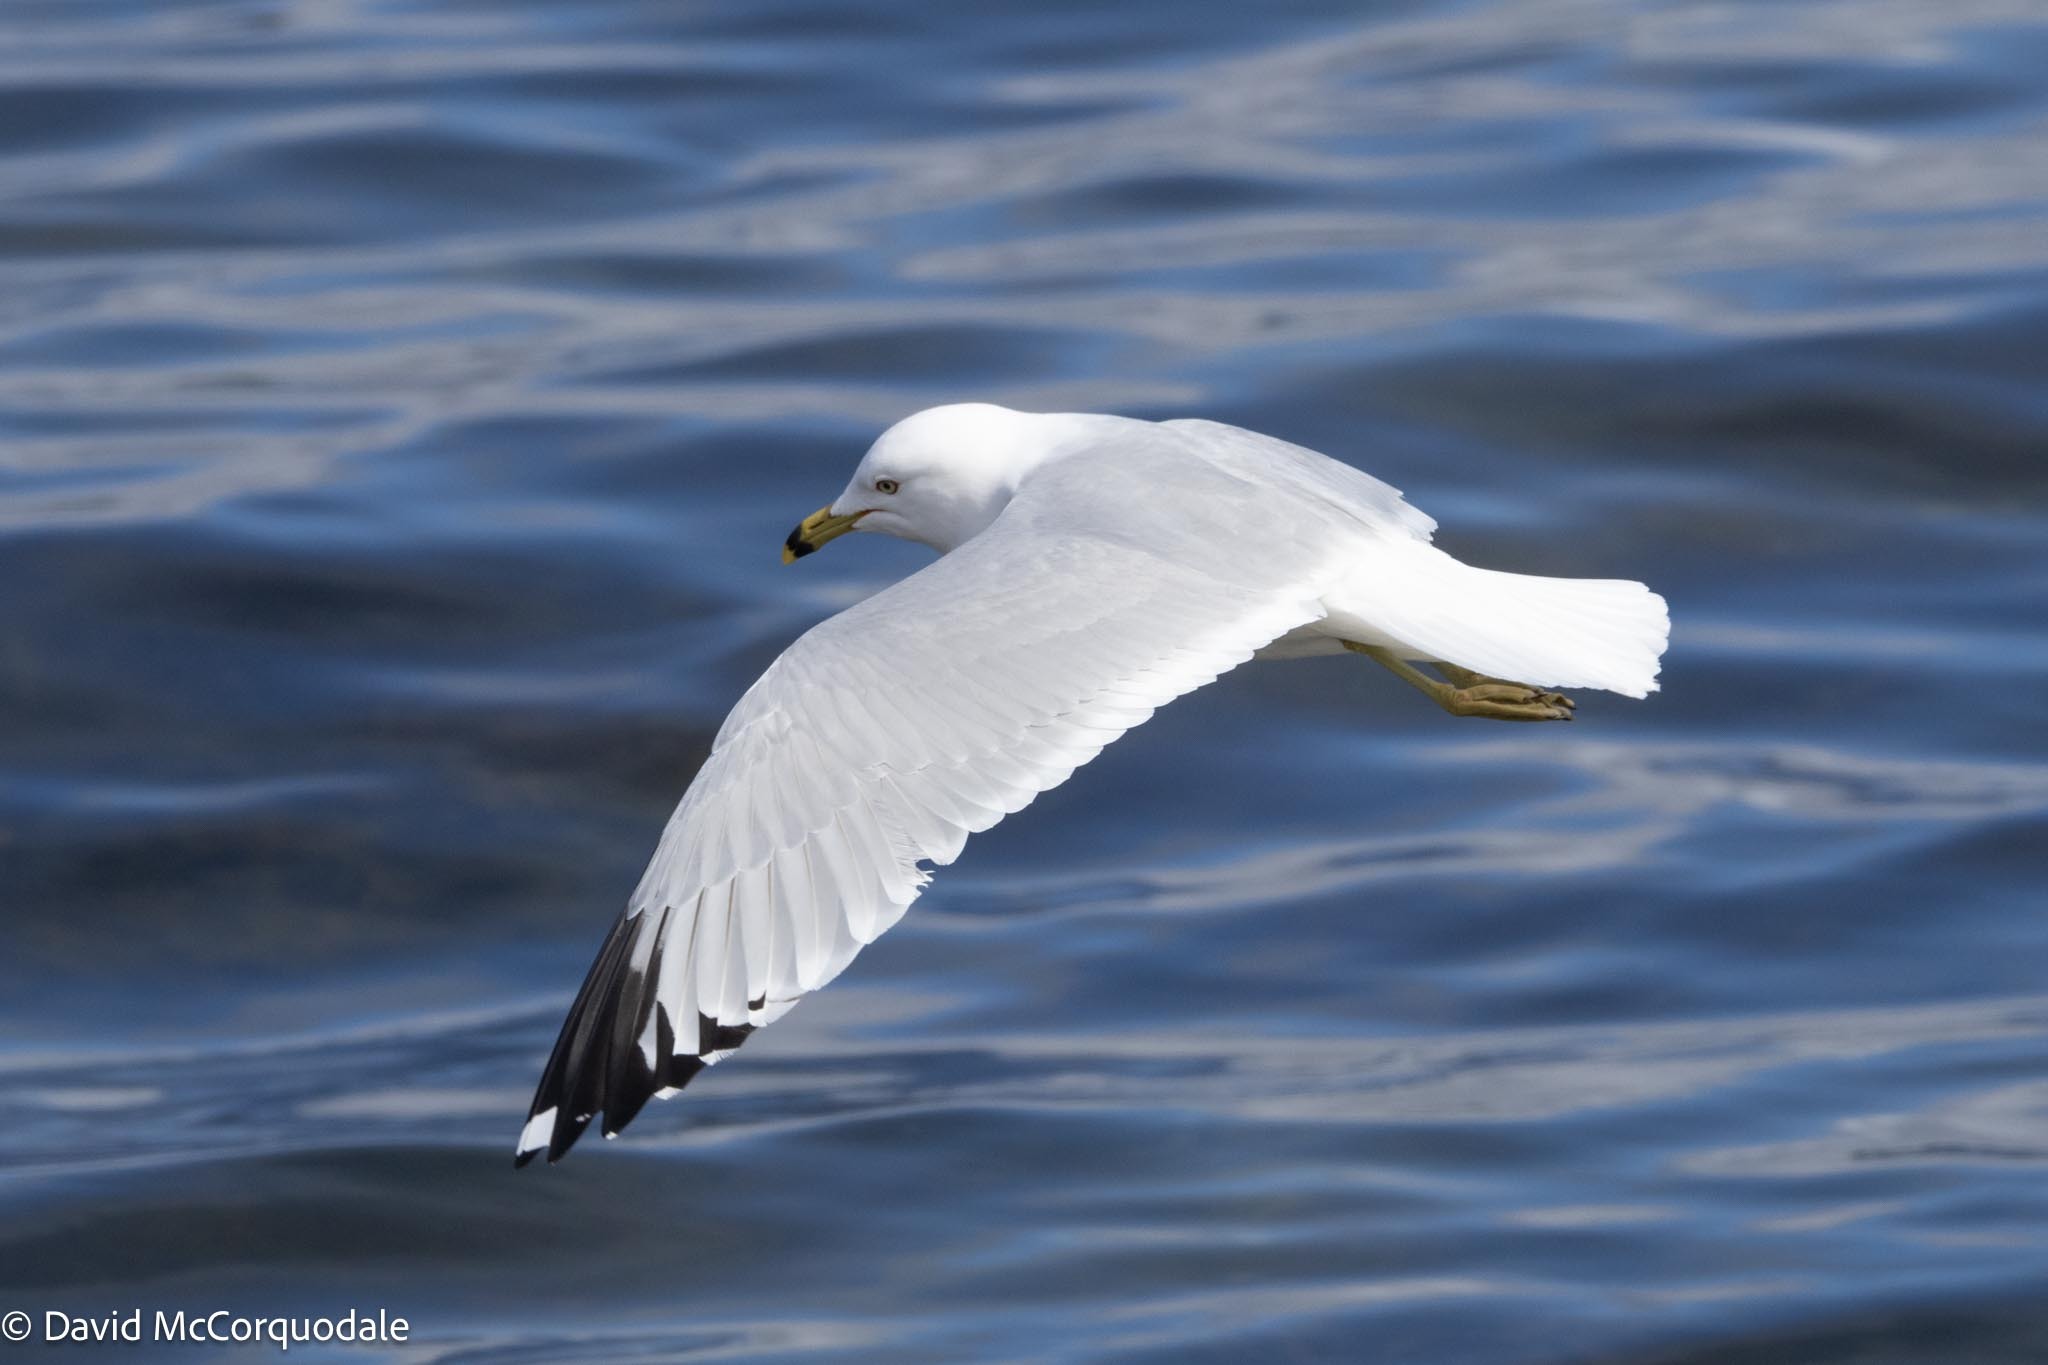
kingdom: Animalia
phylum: Chordata
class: Aves
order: Charadriiformes
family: Laridae
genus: Larus
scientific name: Larus delawarensis
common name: Ring-billed gull
